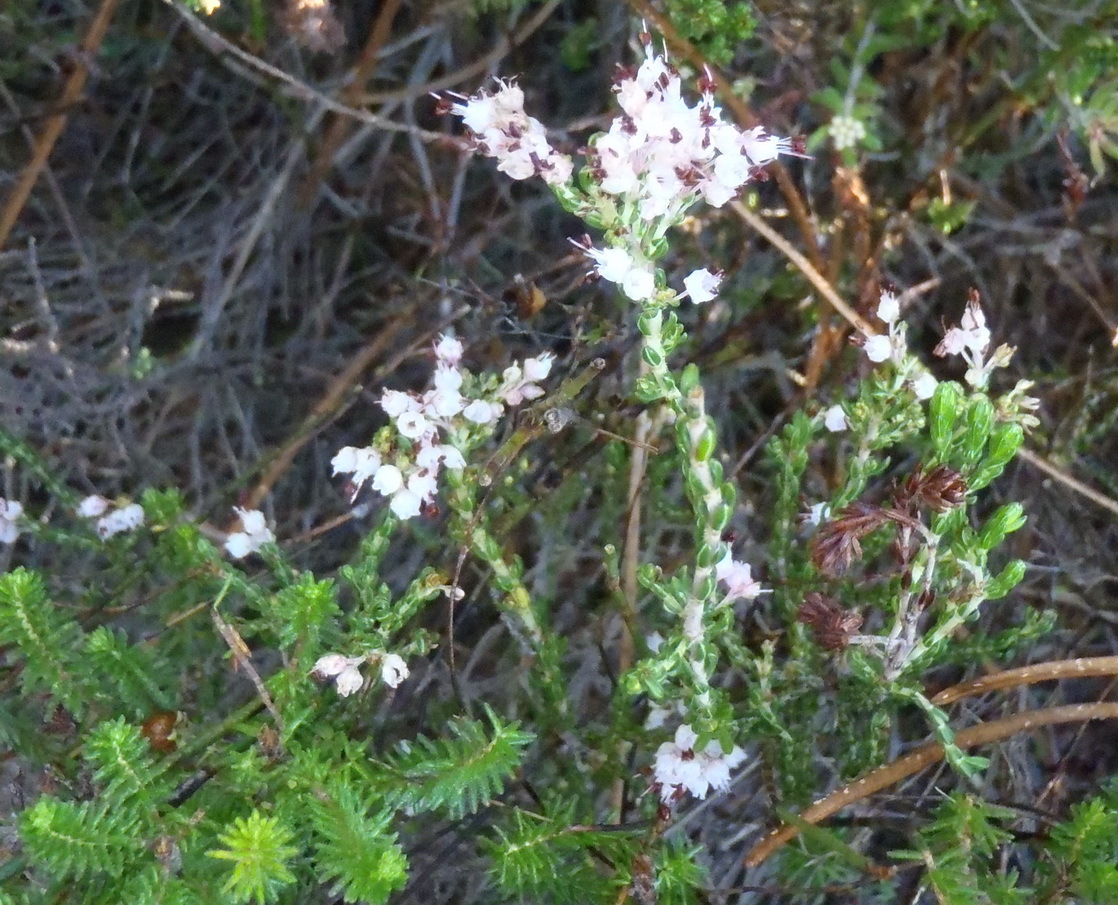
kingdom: Plantae
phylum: Tracheophyta
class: Magnoliopsida
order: Ericales
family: Ericaceae
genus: Erica
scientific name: Erica demissa
